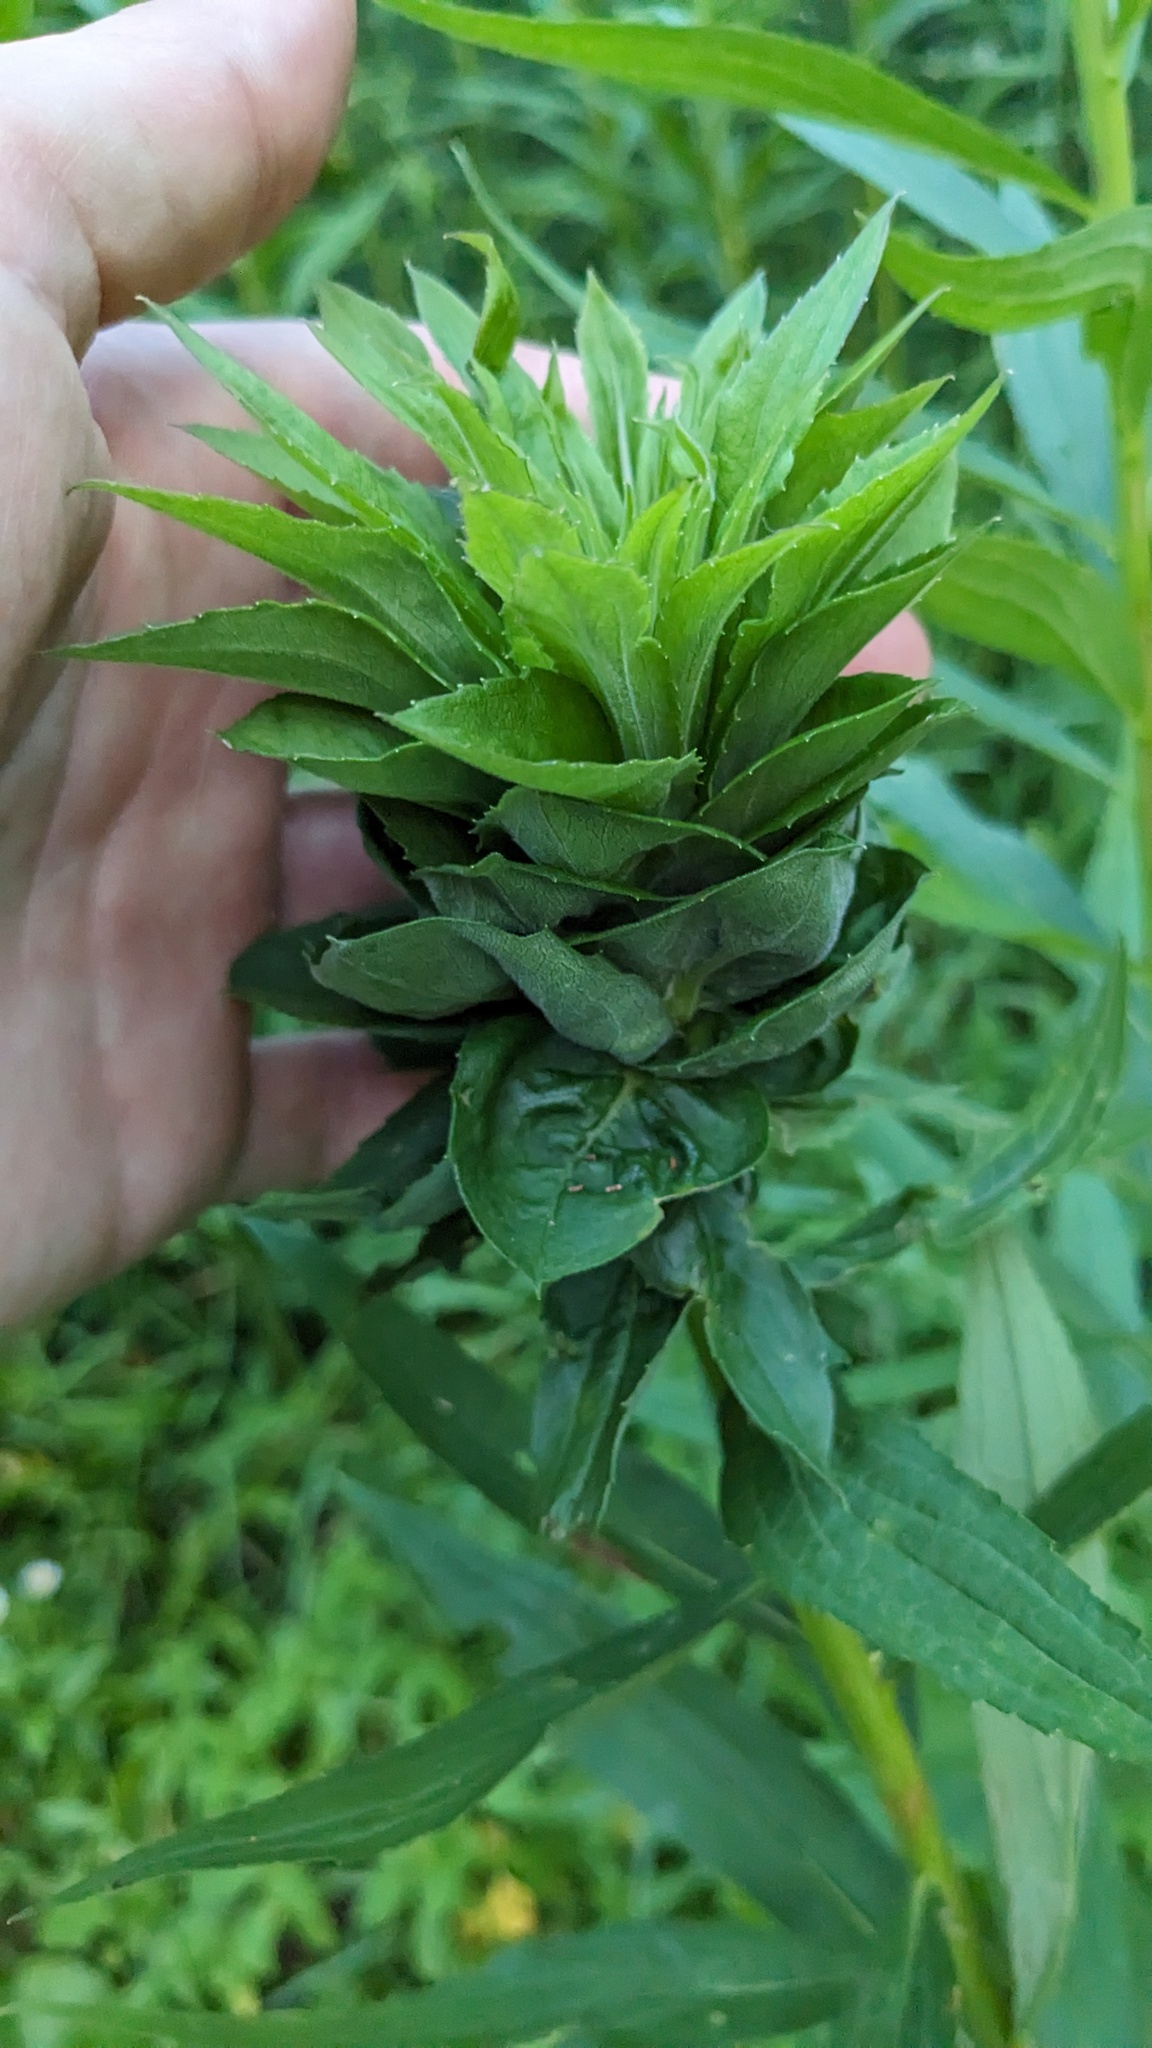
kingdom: Animalia
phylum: Arthropoda
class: Insecta
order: Diptera
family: Cecidomyiidae
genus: Rhopalomyia
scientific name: Rhopalomyia solidaginis
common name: Goldenrod bunch gall midge
